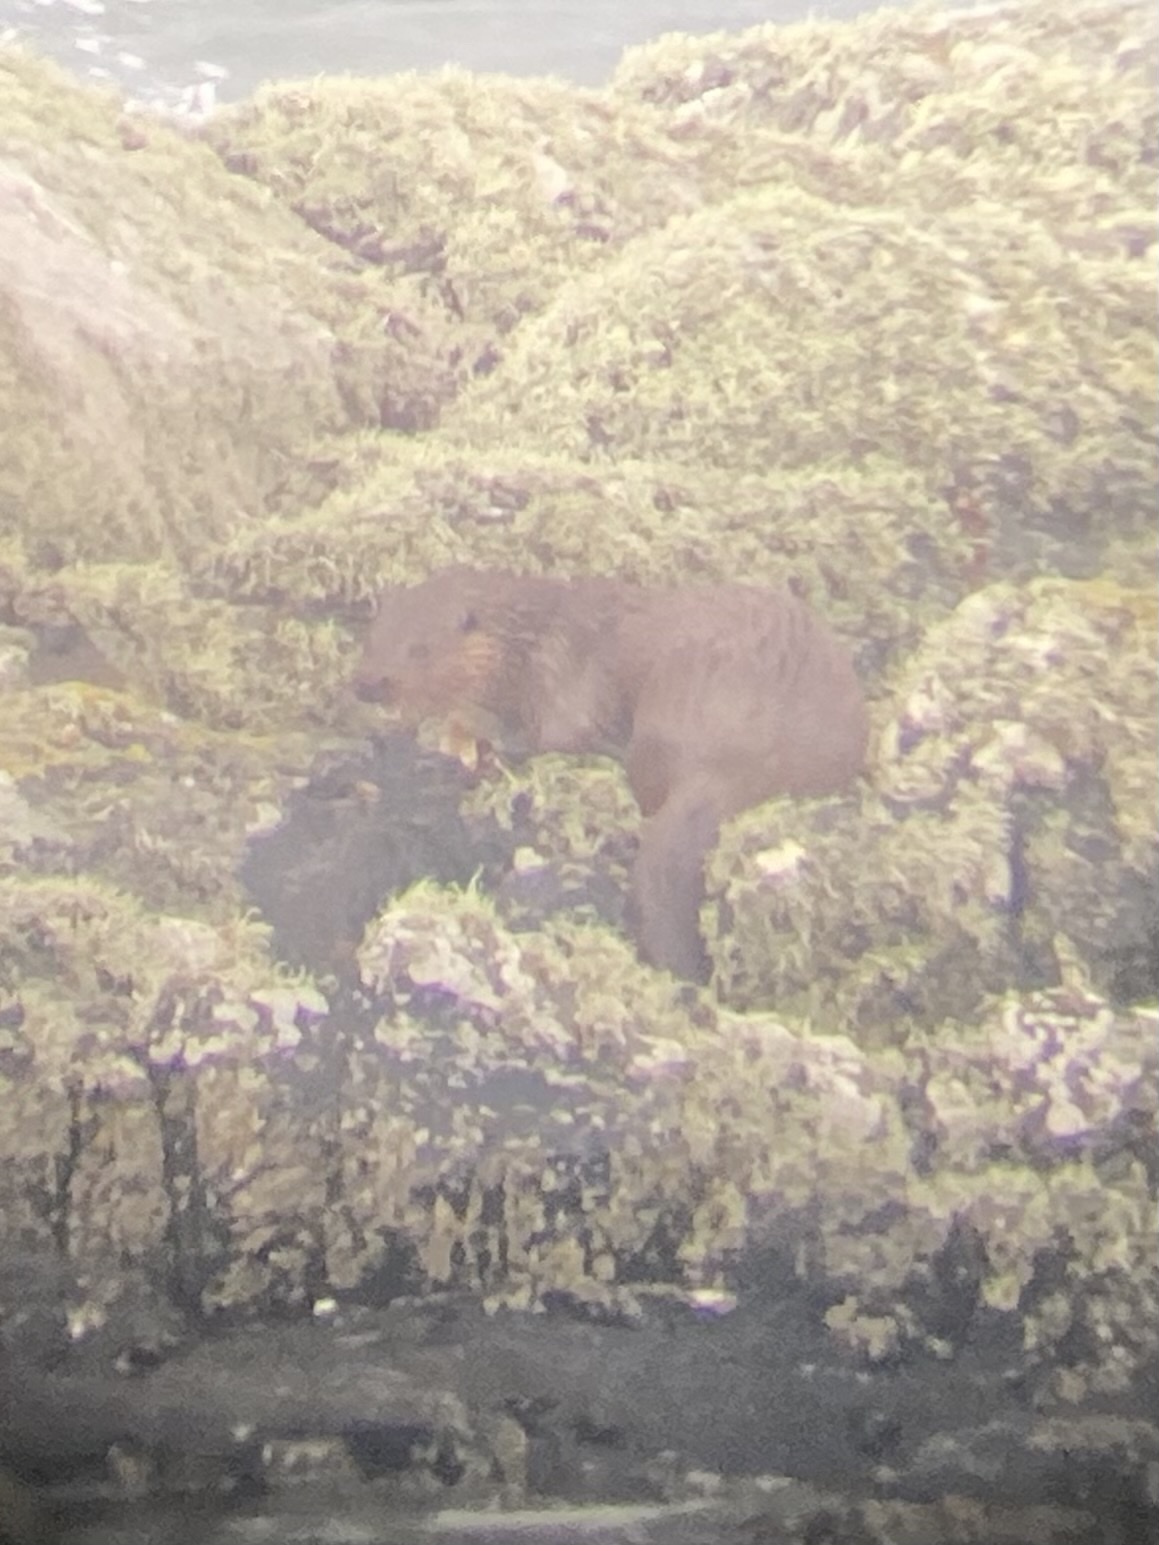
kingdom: Animalia
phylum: Chordata
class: Mammalia
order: Carnivora
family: Mustelidae
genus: Lutra
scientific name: Lutra lutra
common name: European otter
